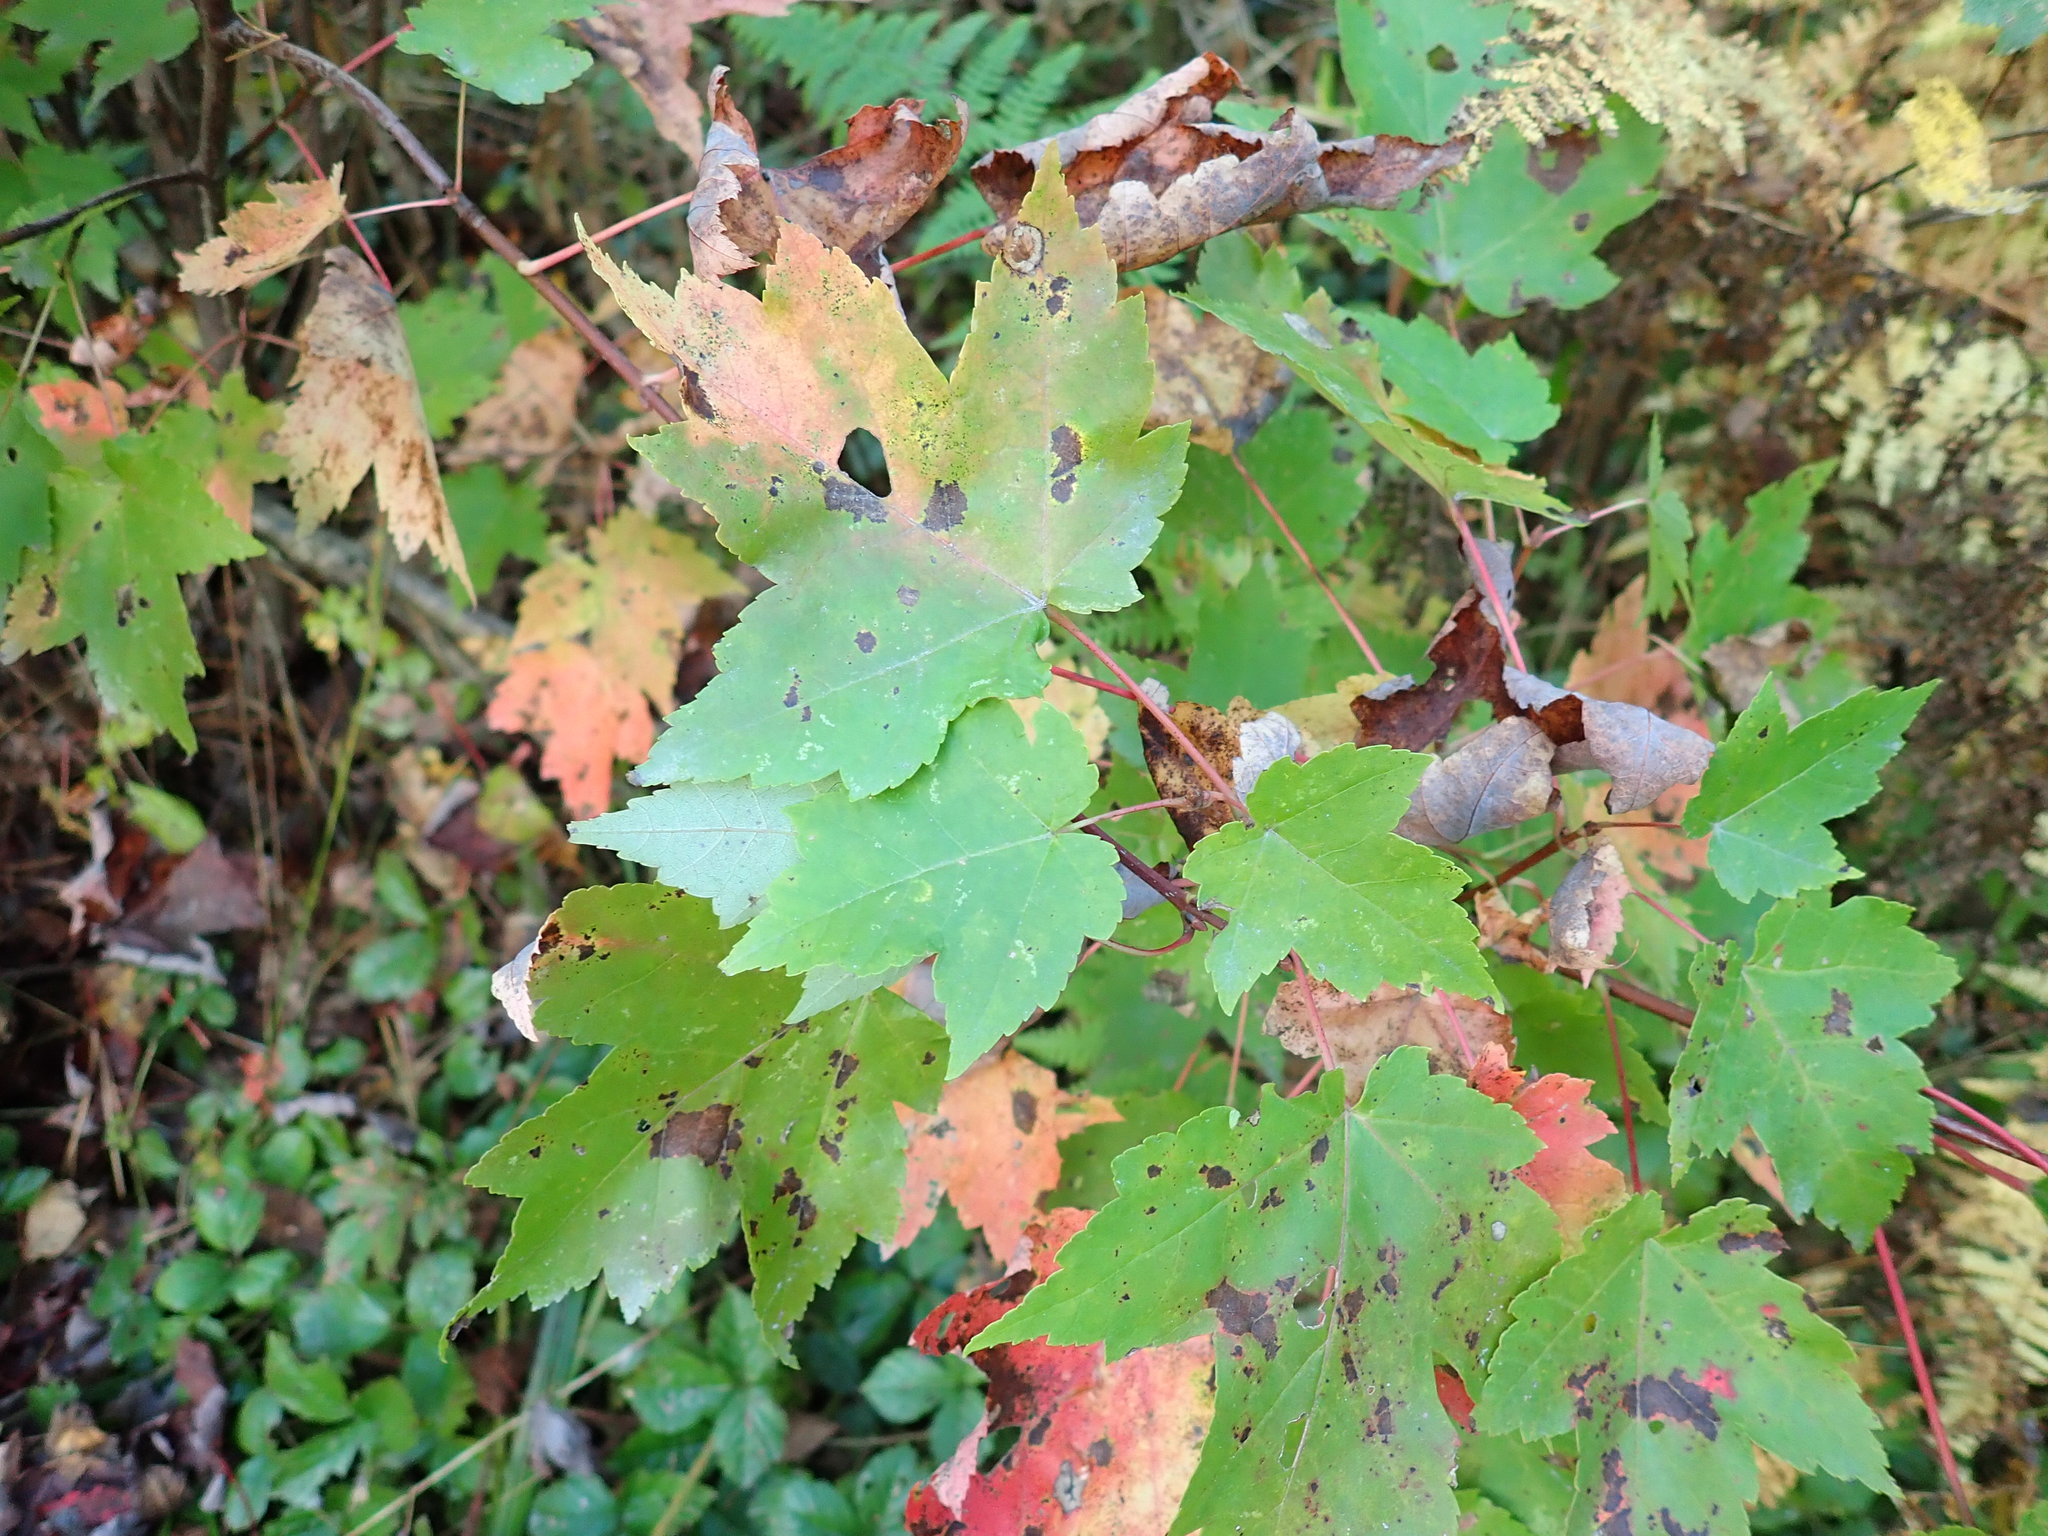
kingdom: Plantae
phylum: Tracheophyta
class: Magnoliopsida
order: Sapindales
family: Sapindaceae
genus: Acer
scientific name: Acer rubrum
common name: Red maple
